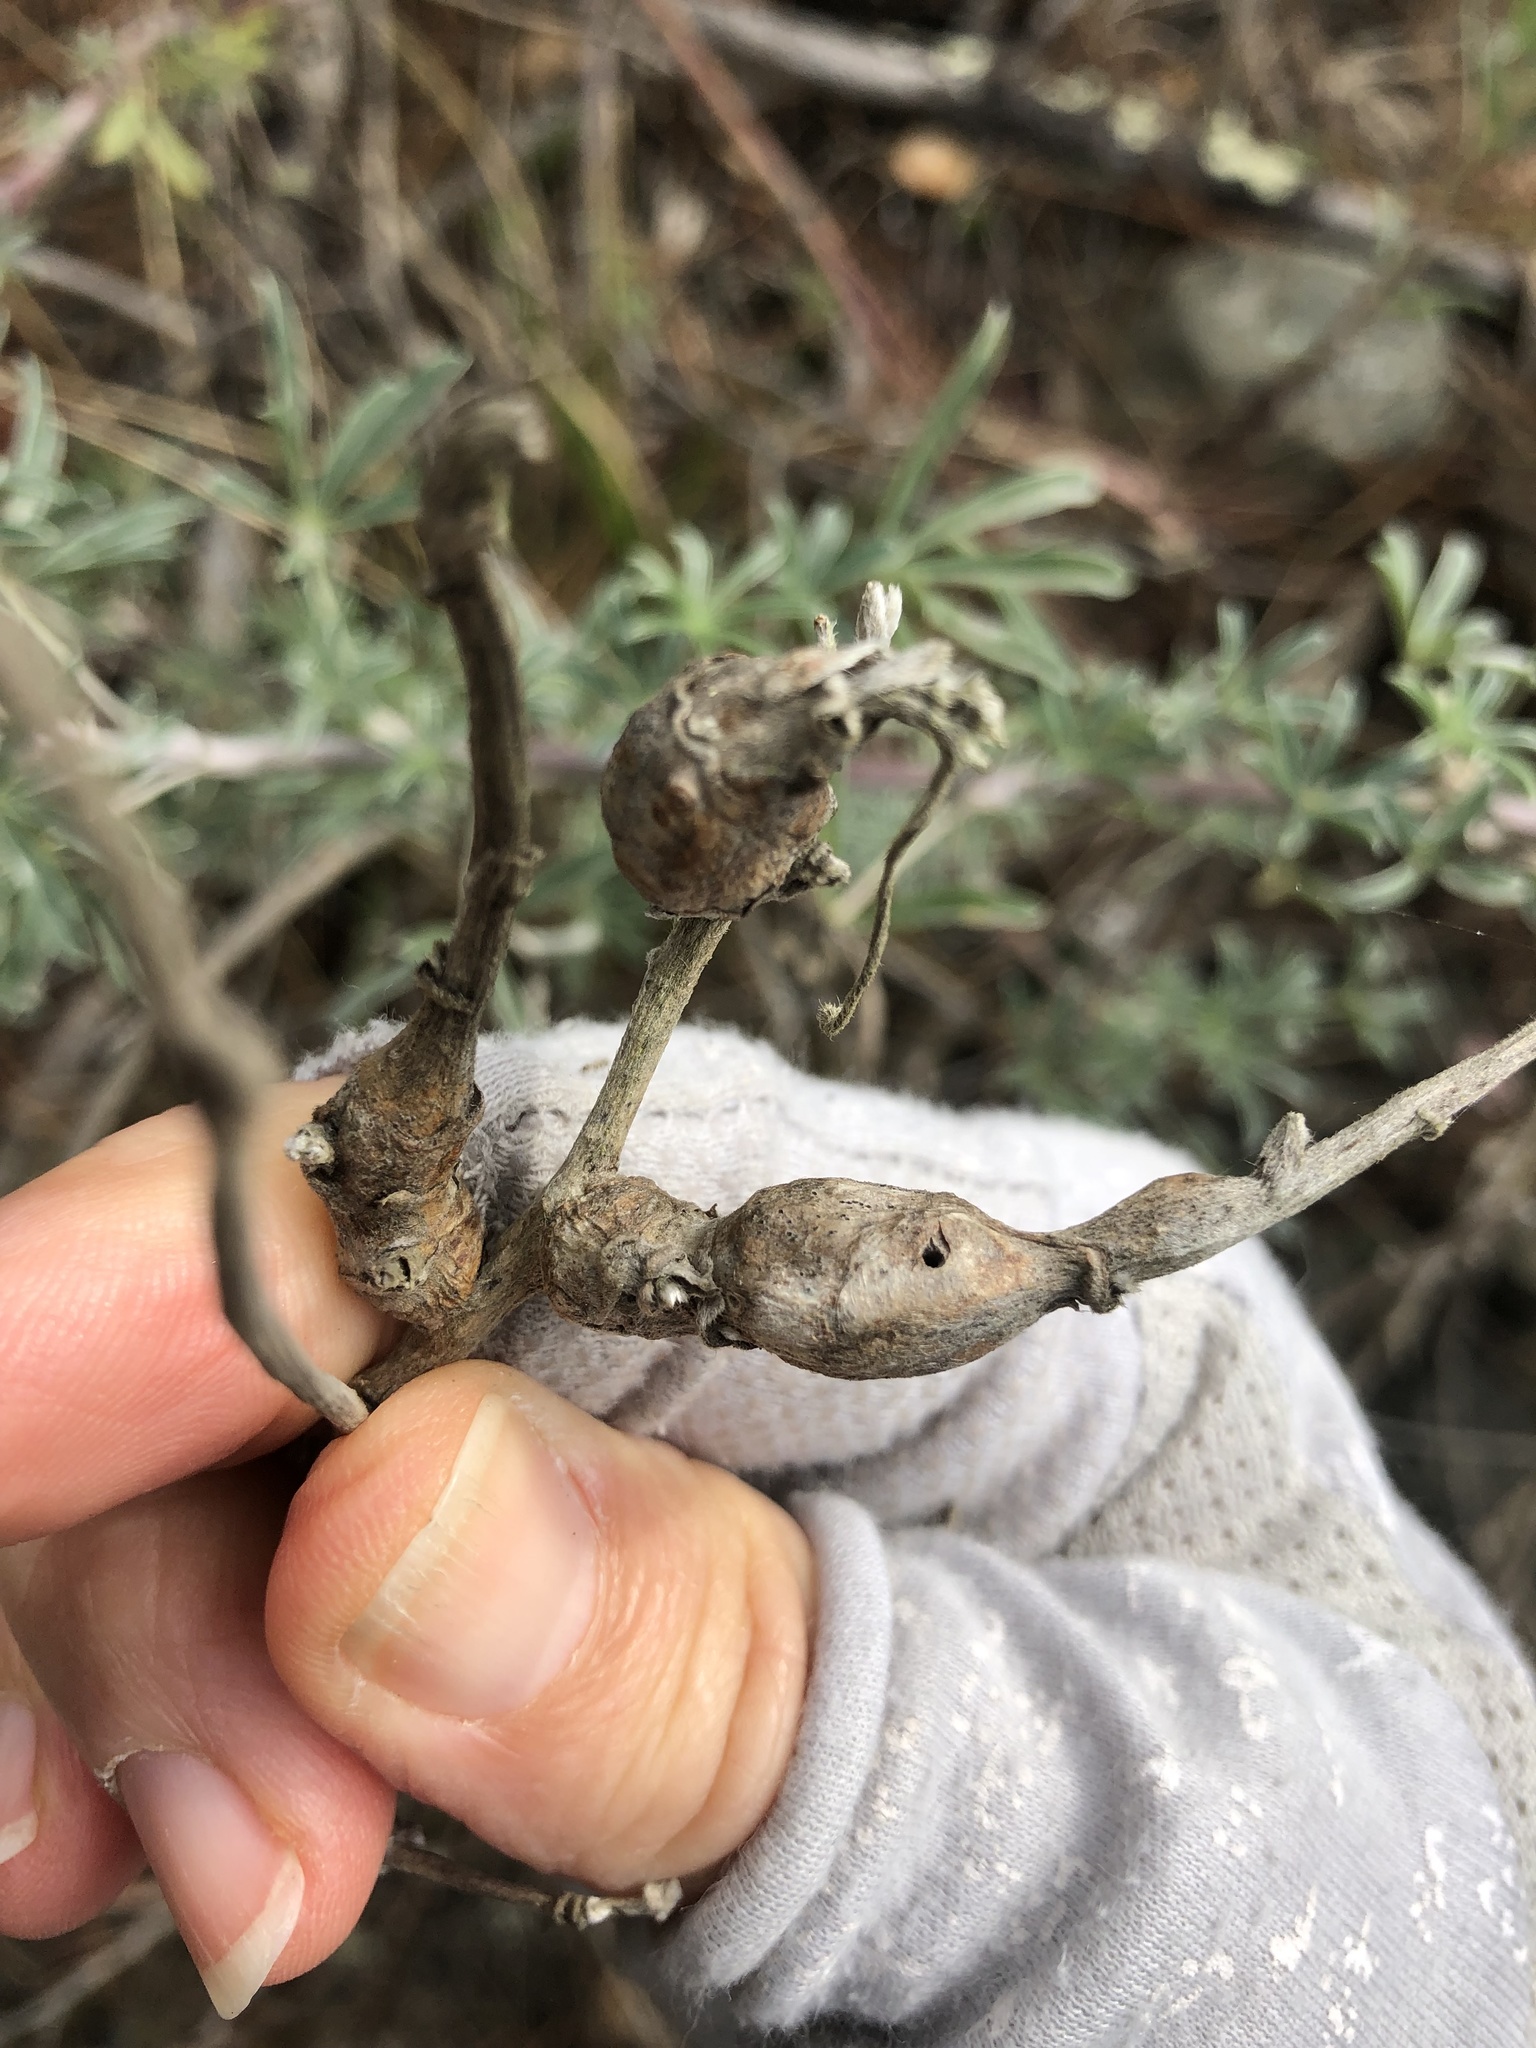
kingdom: Animalia
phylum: Arthropoda
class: Insecta
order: Diptera
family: Cecidomyiidae
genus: Neolasioptera
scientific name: Neolasioptera lupini
